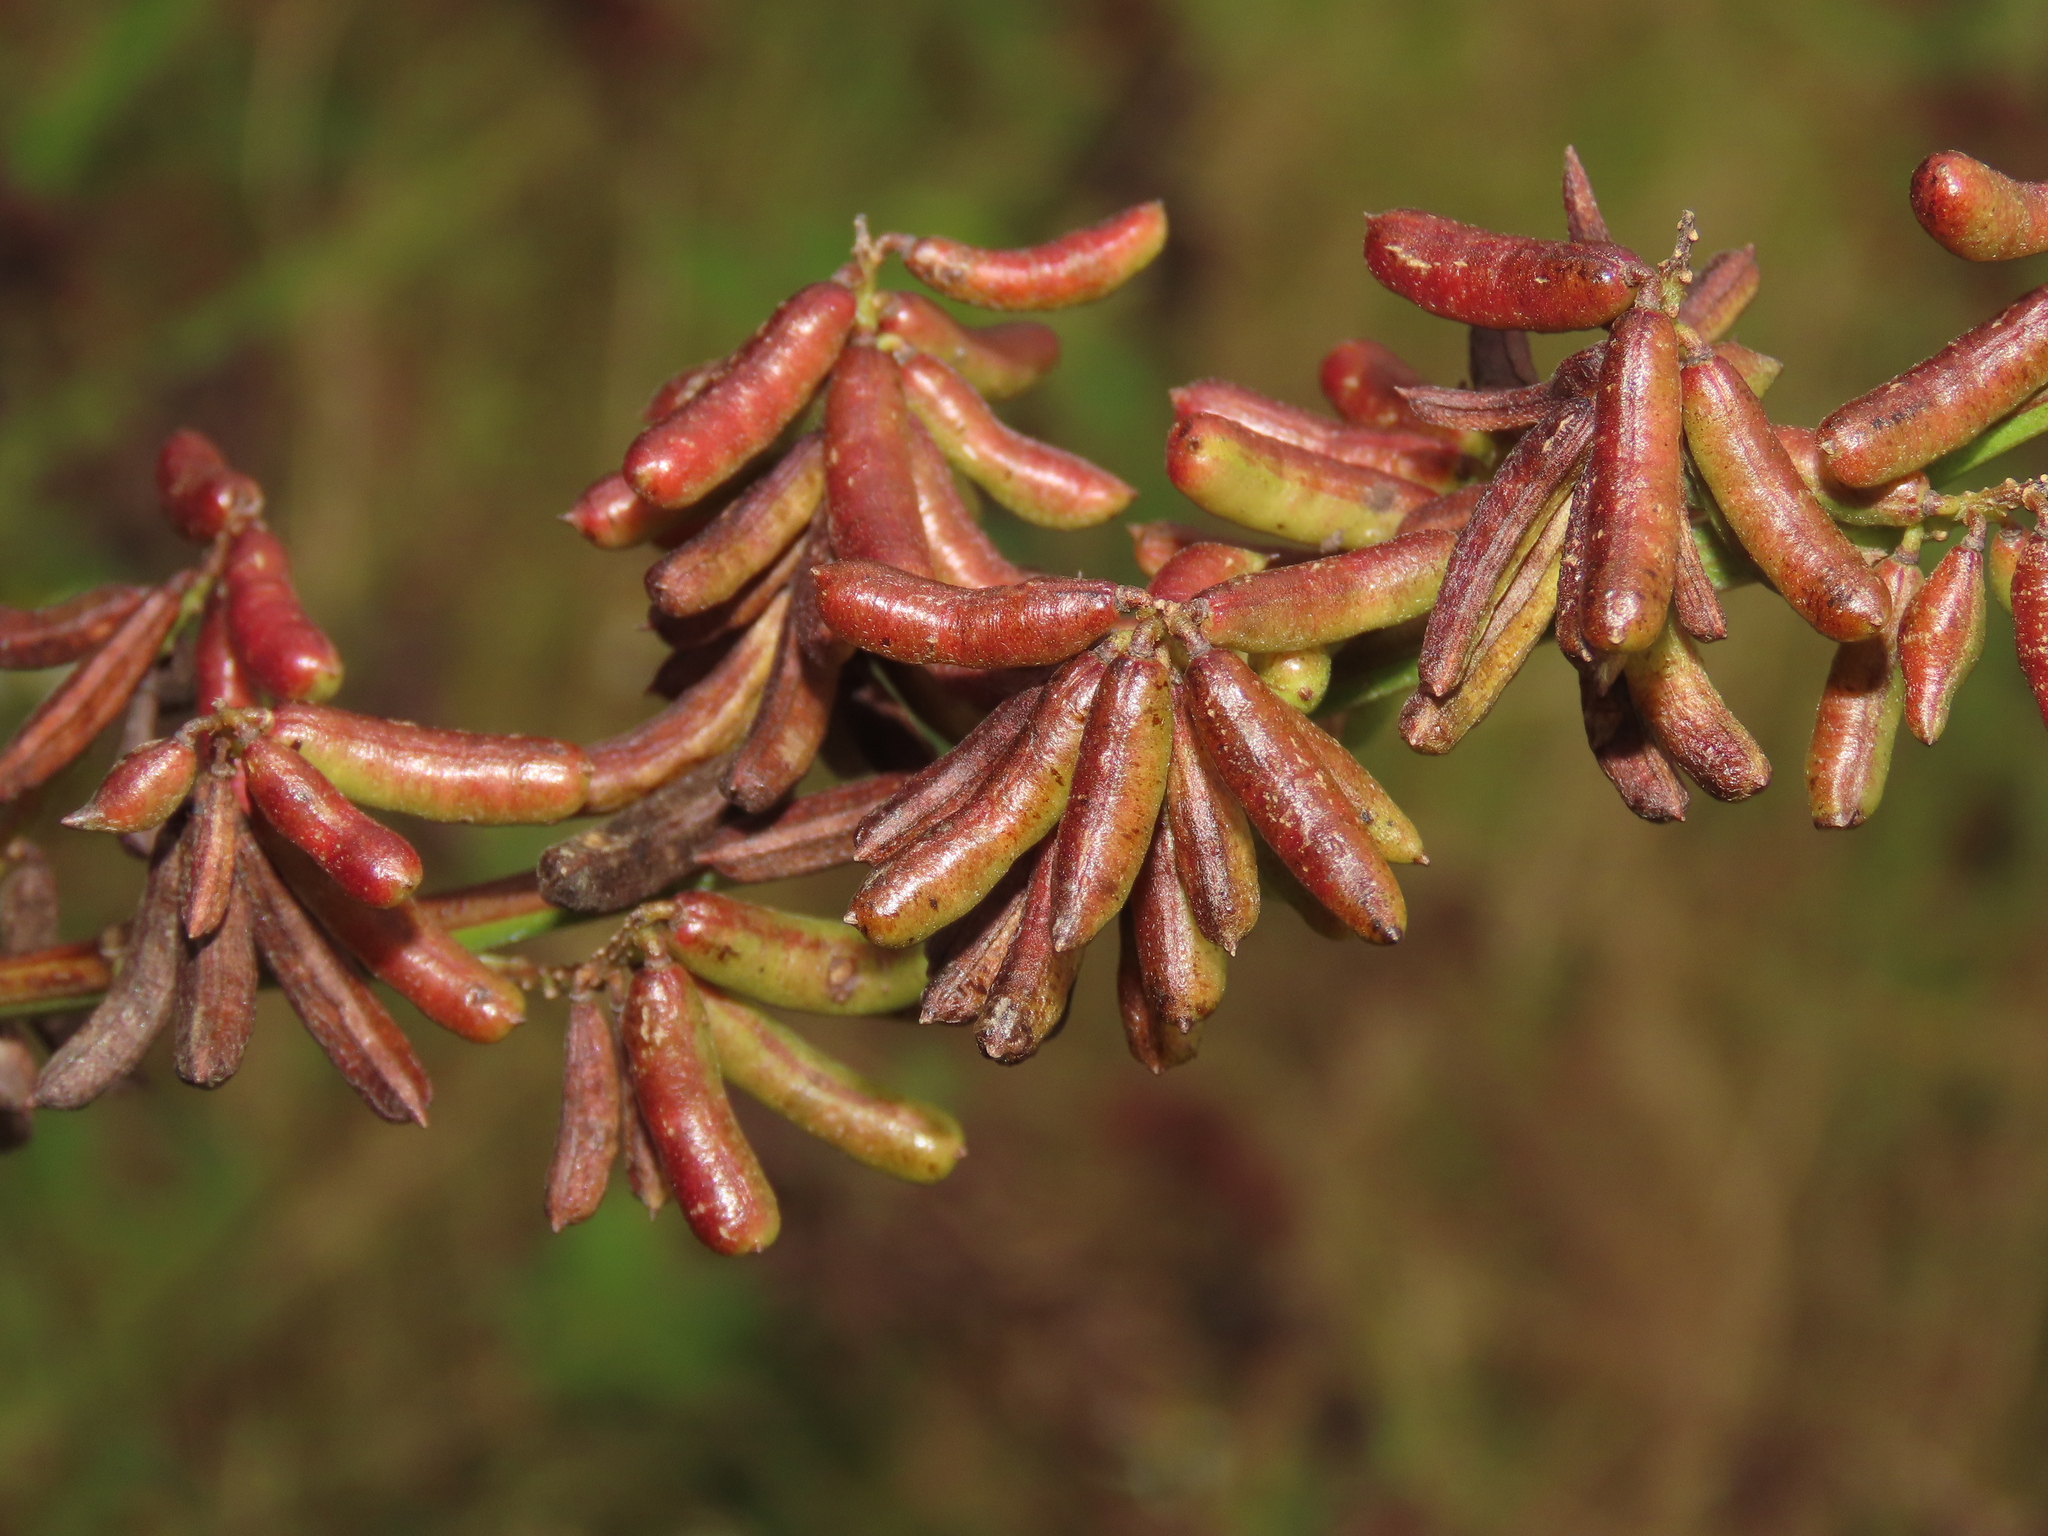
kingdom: Plantae
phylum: Tracheophyta
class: Magnoliopsida
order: Fabales
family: Fabaceae
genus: Indigofera
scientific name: Indigofera suffruticosa
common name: Anil de pasto
